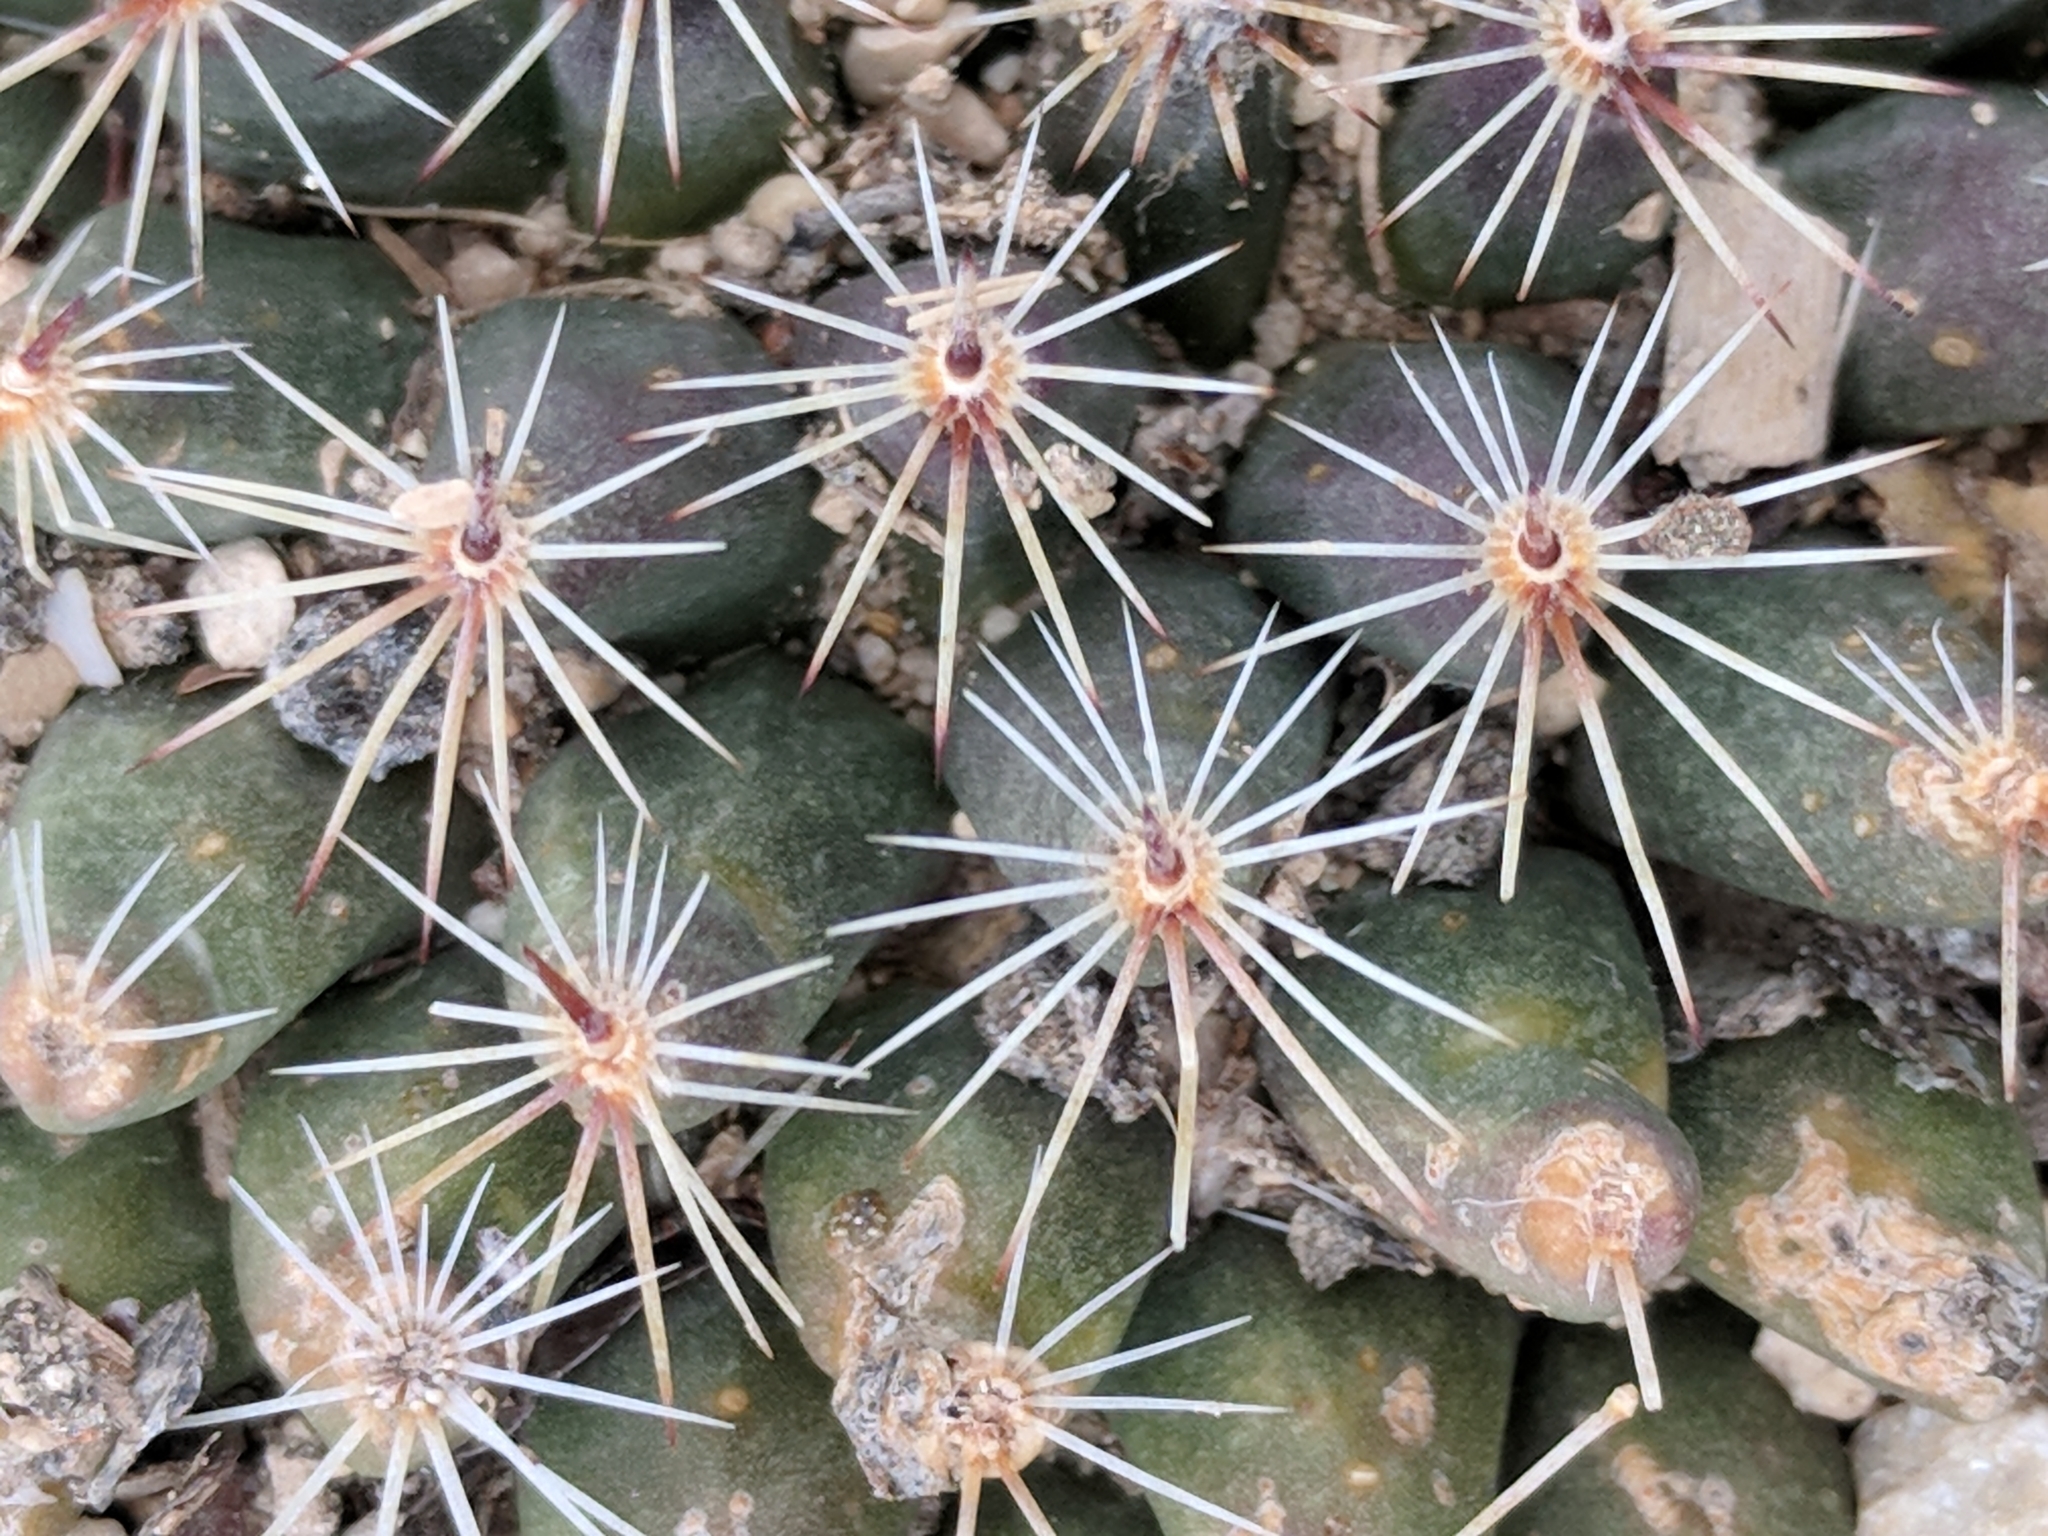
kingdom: Plantae
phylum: Tracheophyta
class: Magnoliopsida
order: Caryophyllales
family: Cactaceae
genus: Mammillaria
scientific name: Mammillaria heyderi
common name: Little nipple cactus
